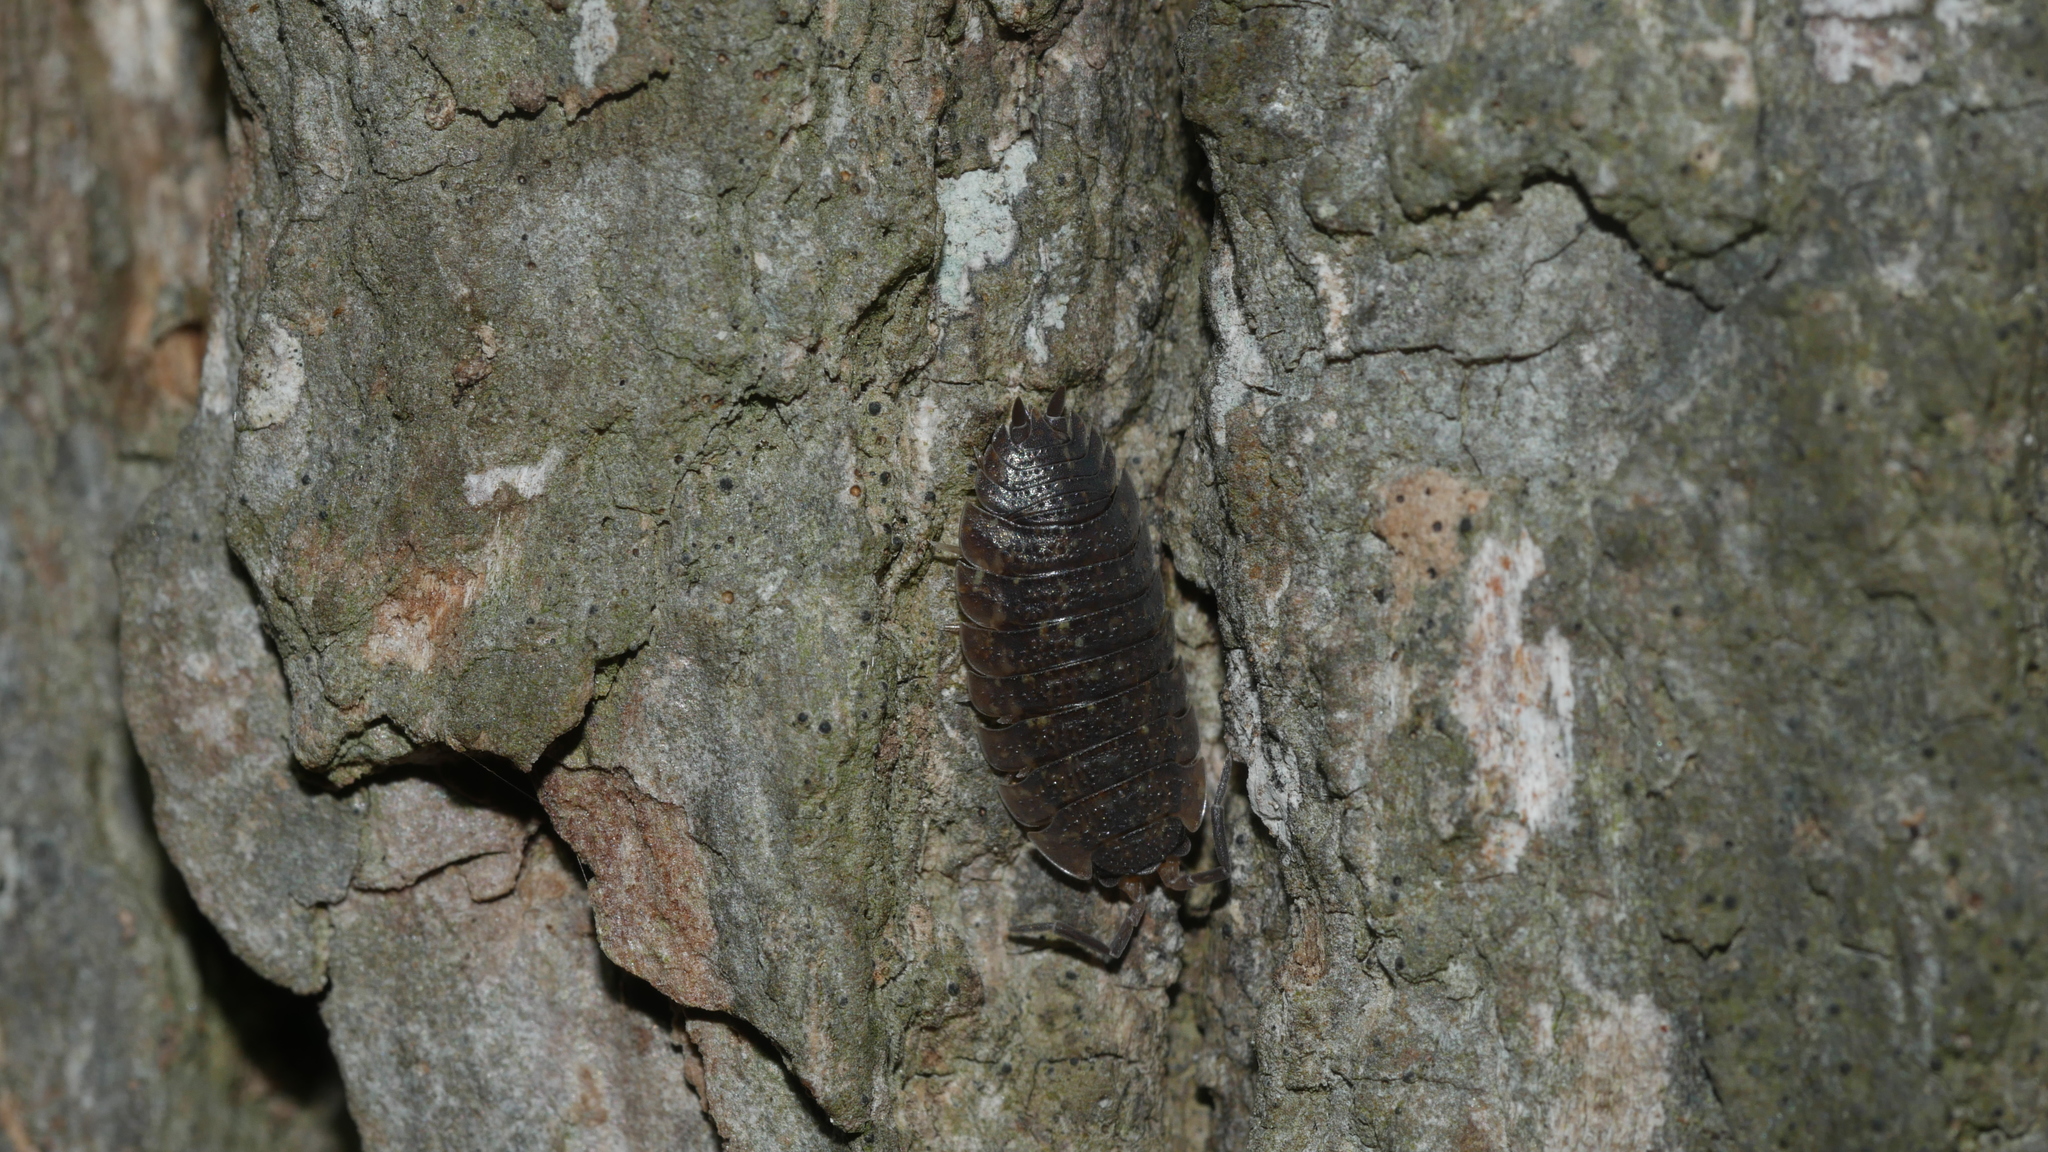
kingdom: Animalia
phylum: Arthropoda
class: Malacostraca
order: Isopoda
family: Porcellionidae
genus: Porcellio
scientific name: Porcellio scaber
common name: Common rough woodlouse
